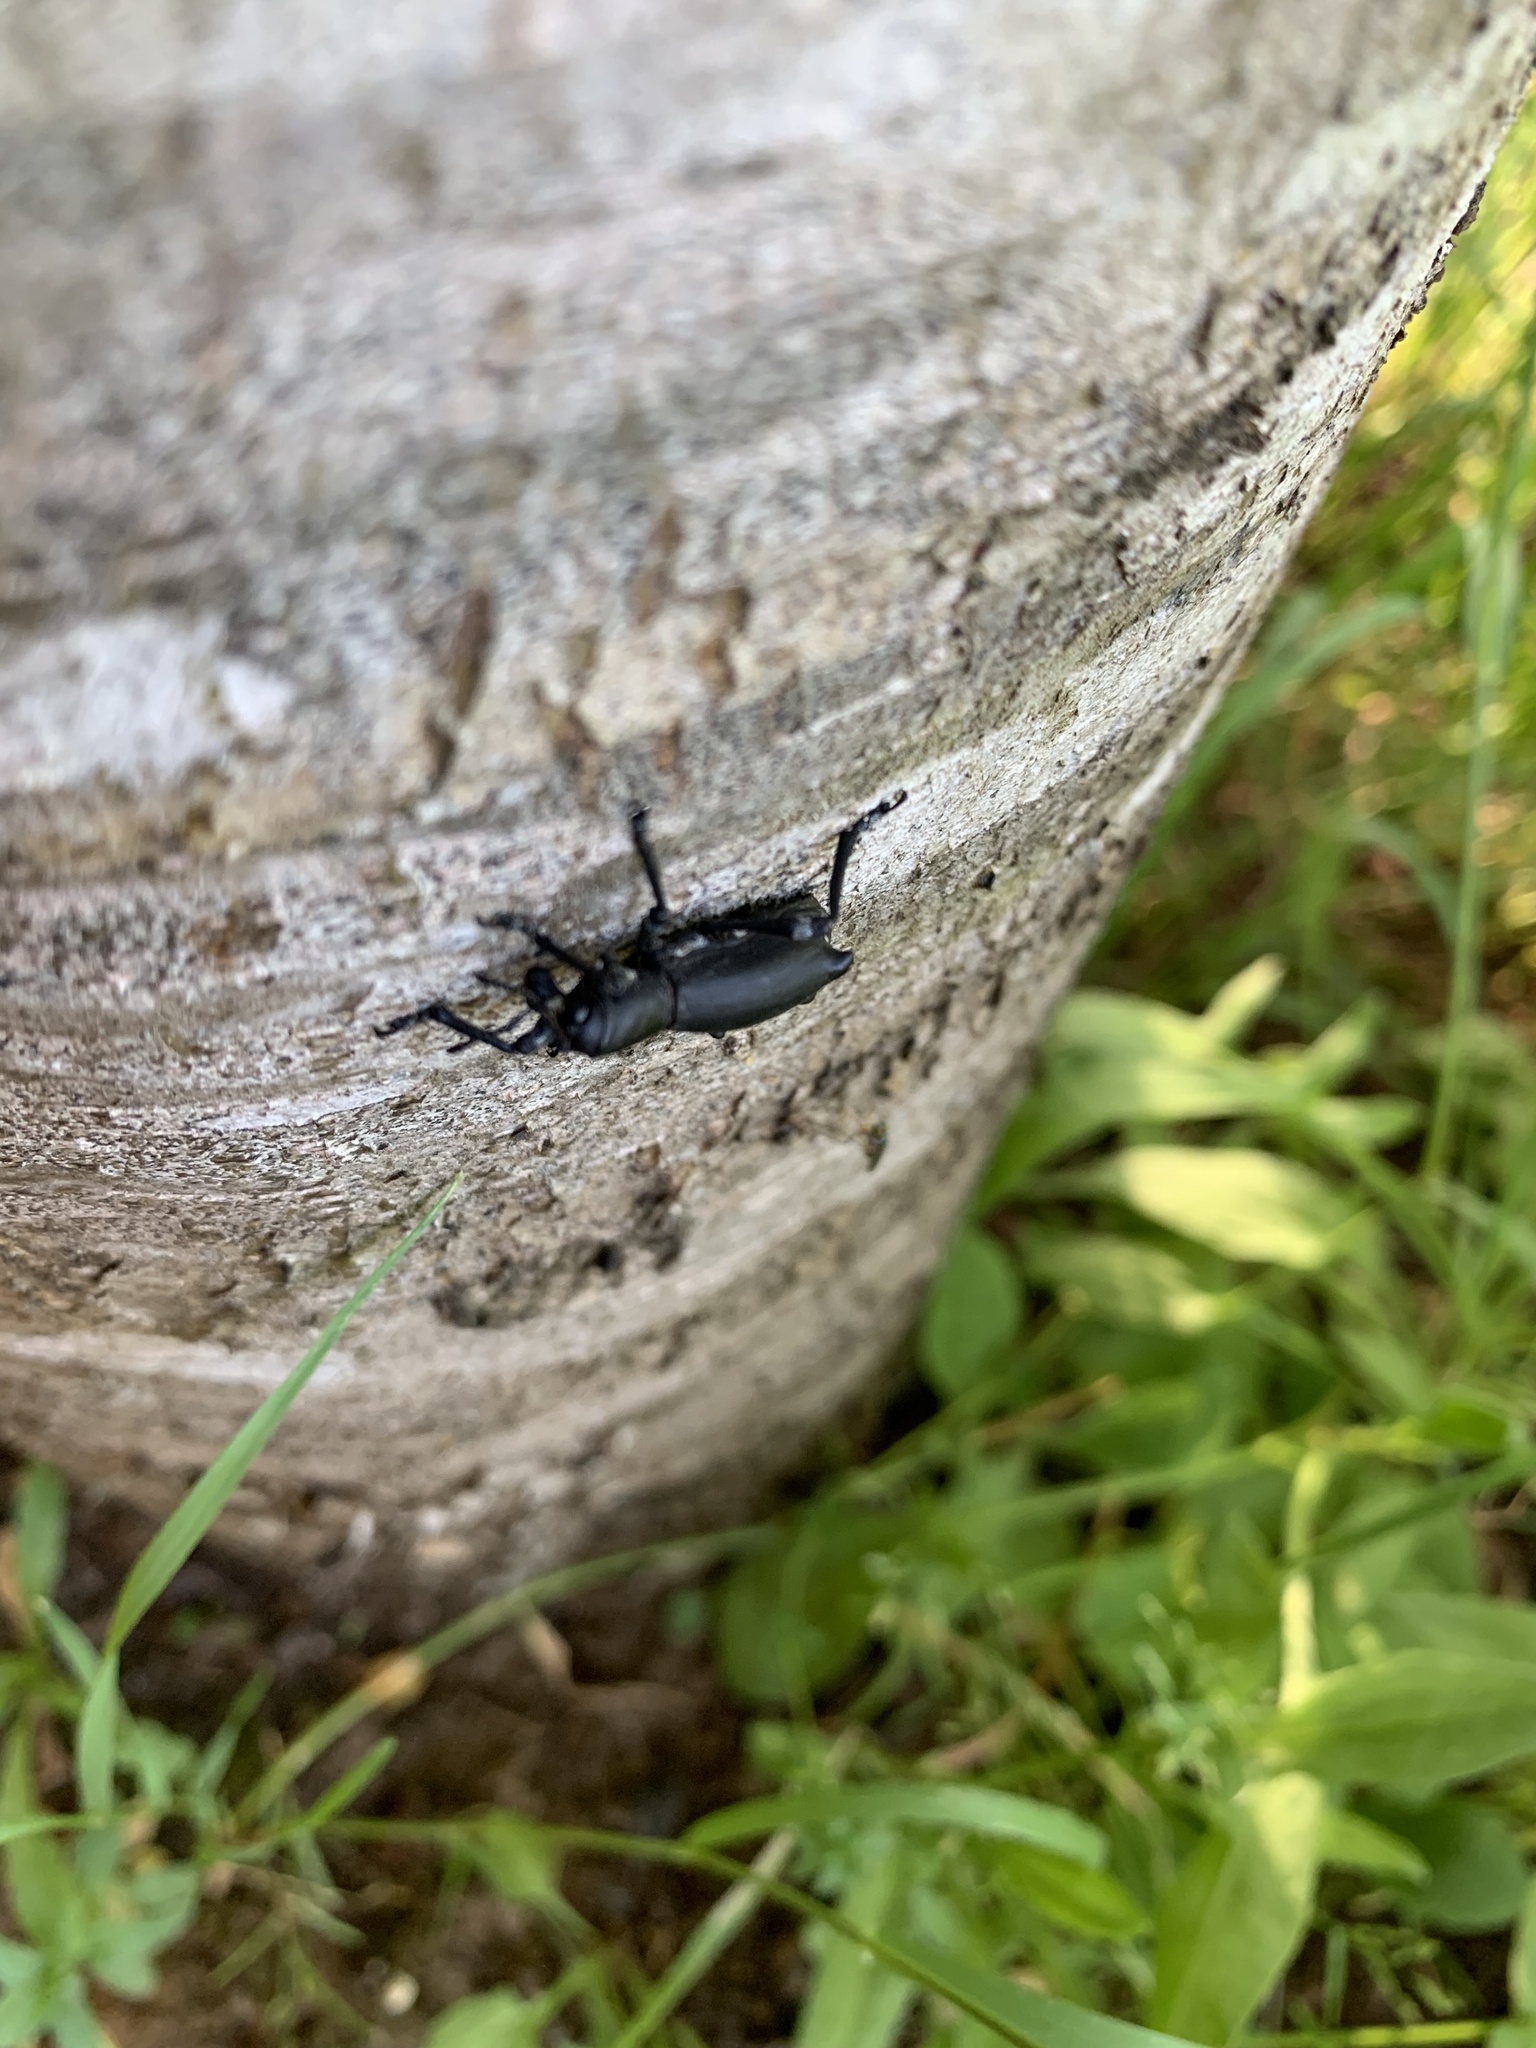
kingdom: Animalia
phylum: Arthropoda
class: Insecta
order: Coleoptera
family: Curculionidae
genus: Aegorhinus
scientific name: Aegorhinus
